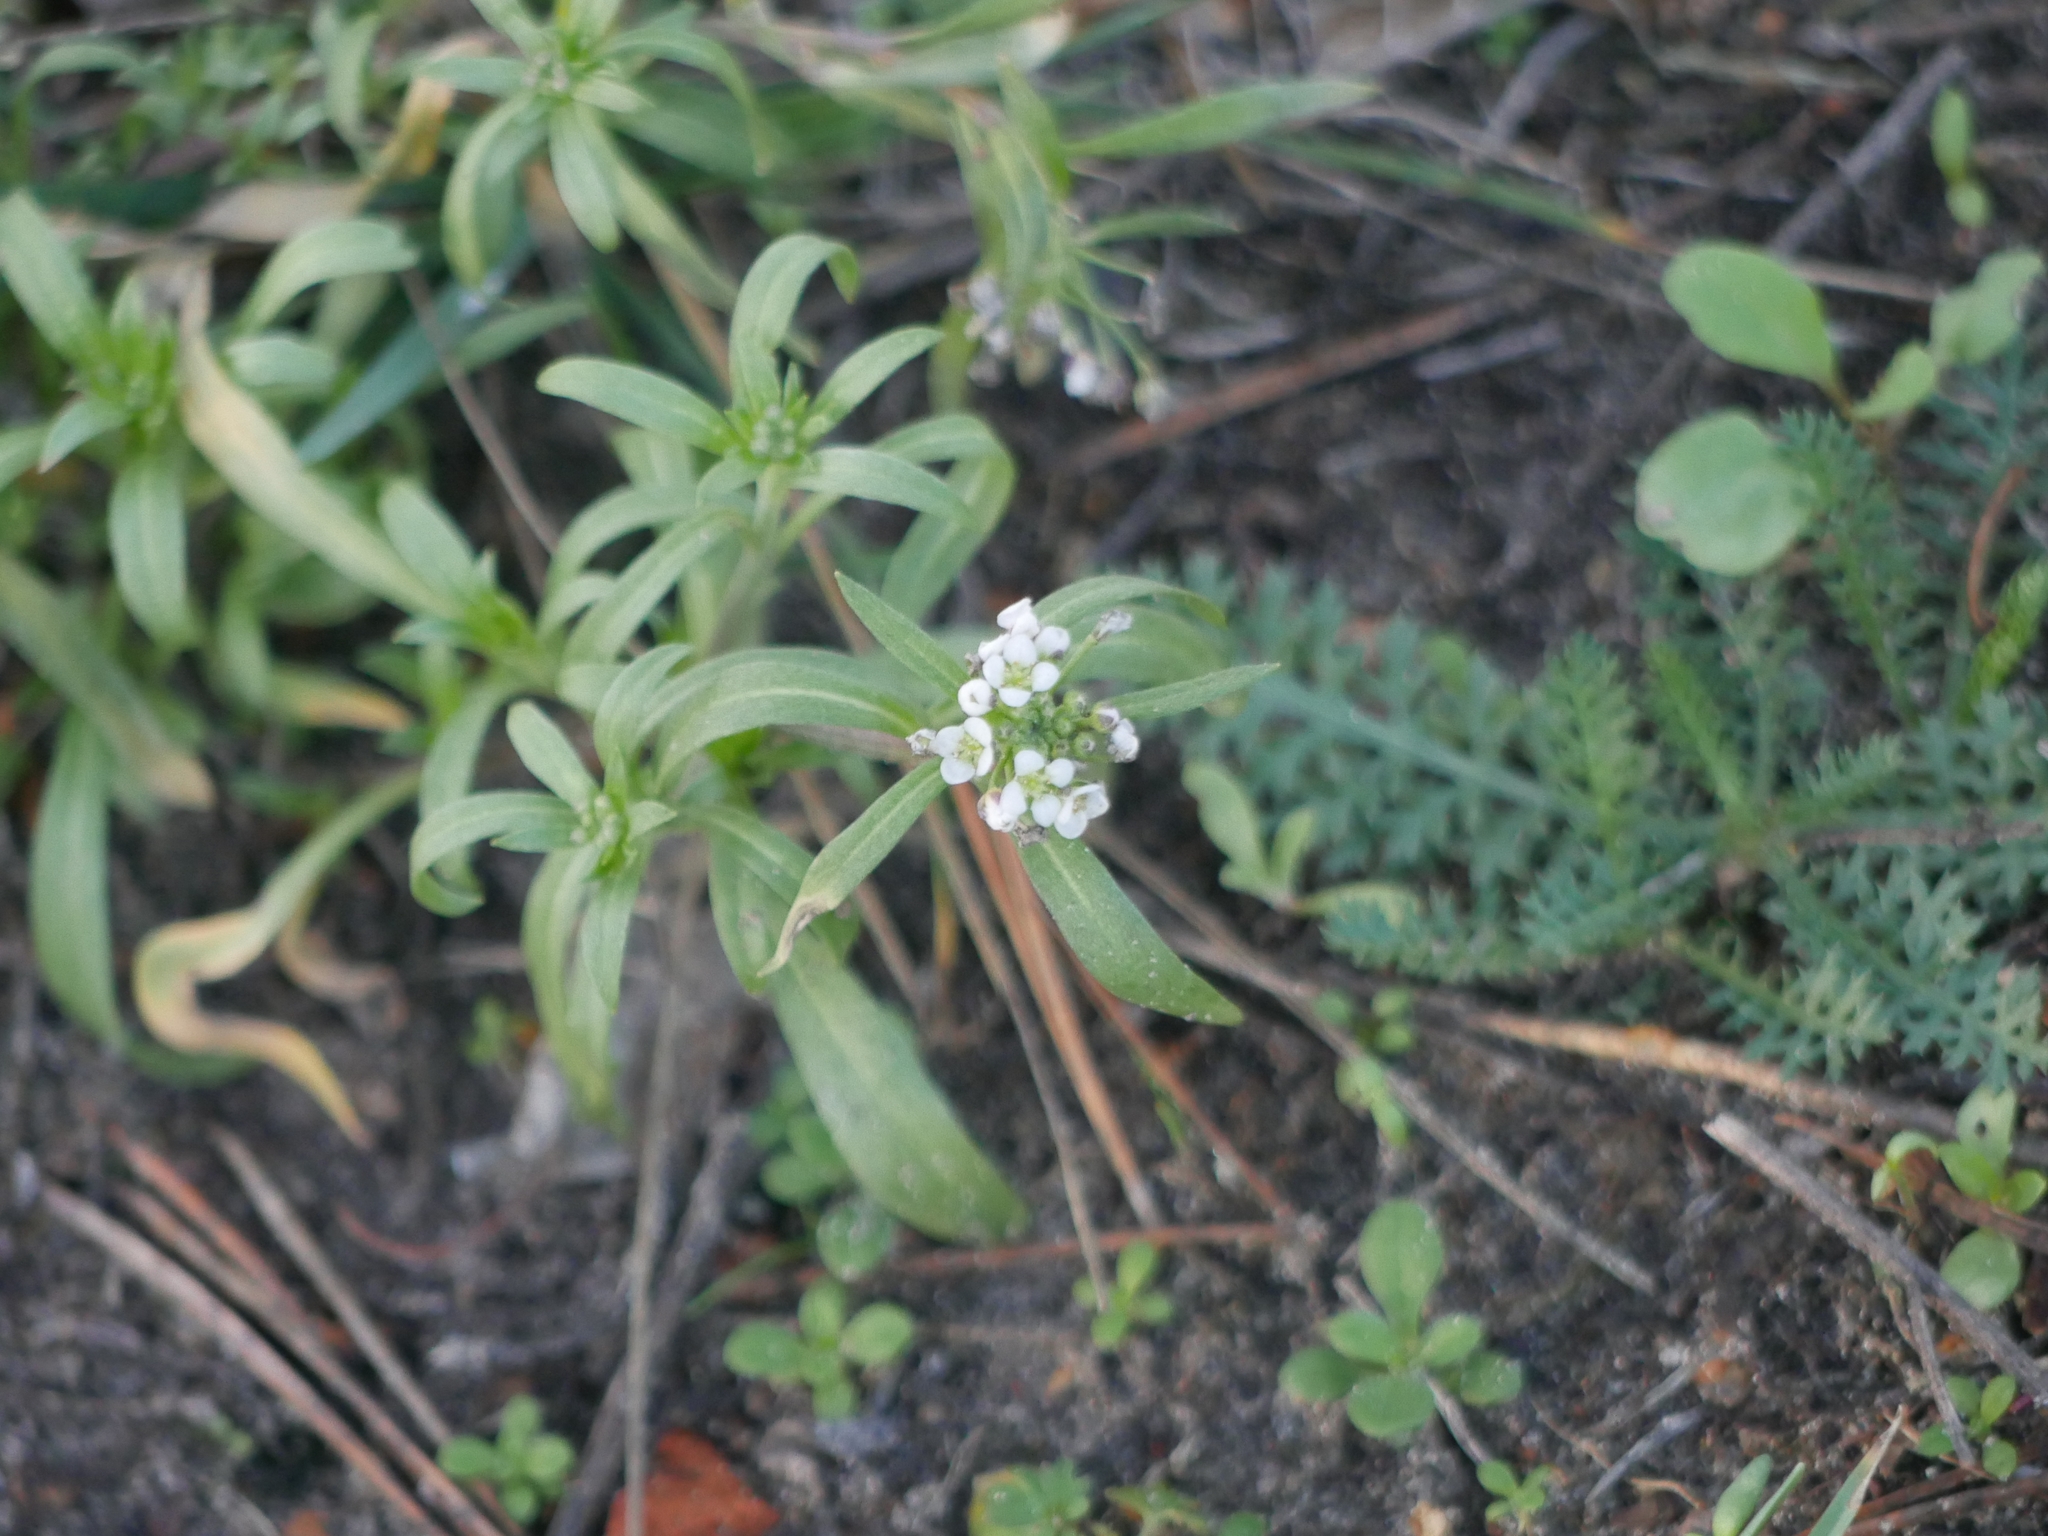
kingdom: Plantae
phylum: Tracheophyta
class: Magnoliopsida
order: Brassicales
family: Brassicaceae
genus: Lobularia
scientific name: Lobularia maritima
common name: Sweet alison
